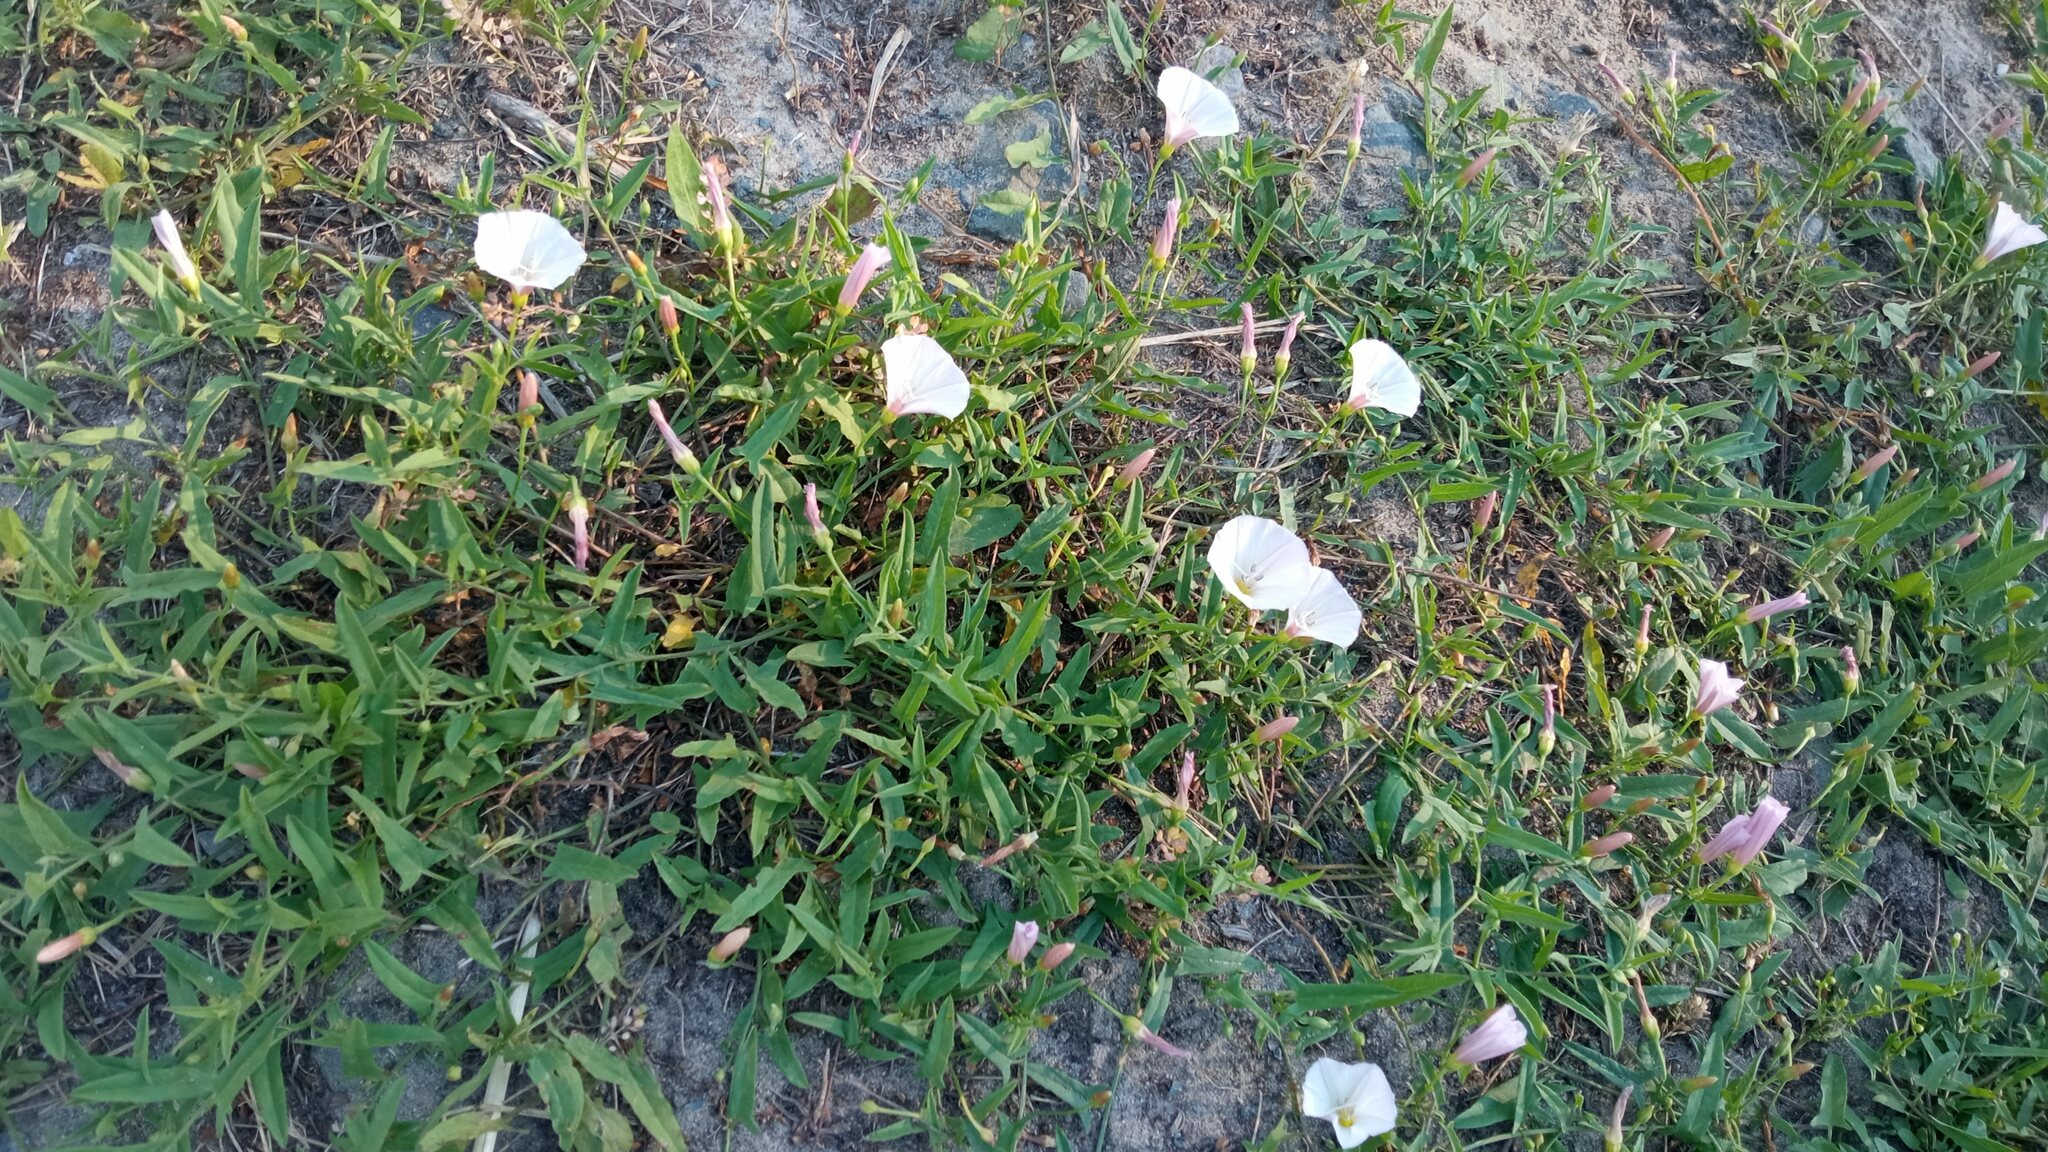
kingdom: Plantae
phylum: Tracheophyta
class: Magnoliopsida
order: Solanales
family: Convolvulaceae
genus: Convolvulus
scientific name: Convolvulus arvensis
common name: Field bindweed
